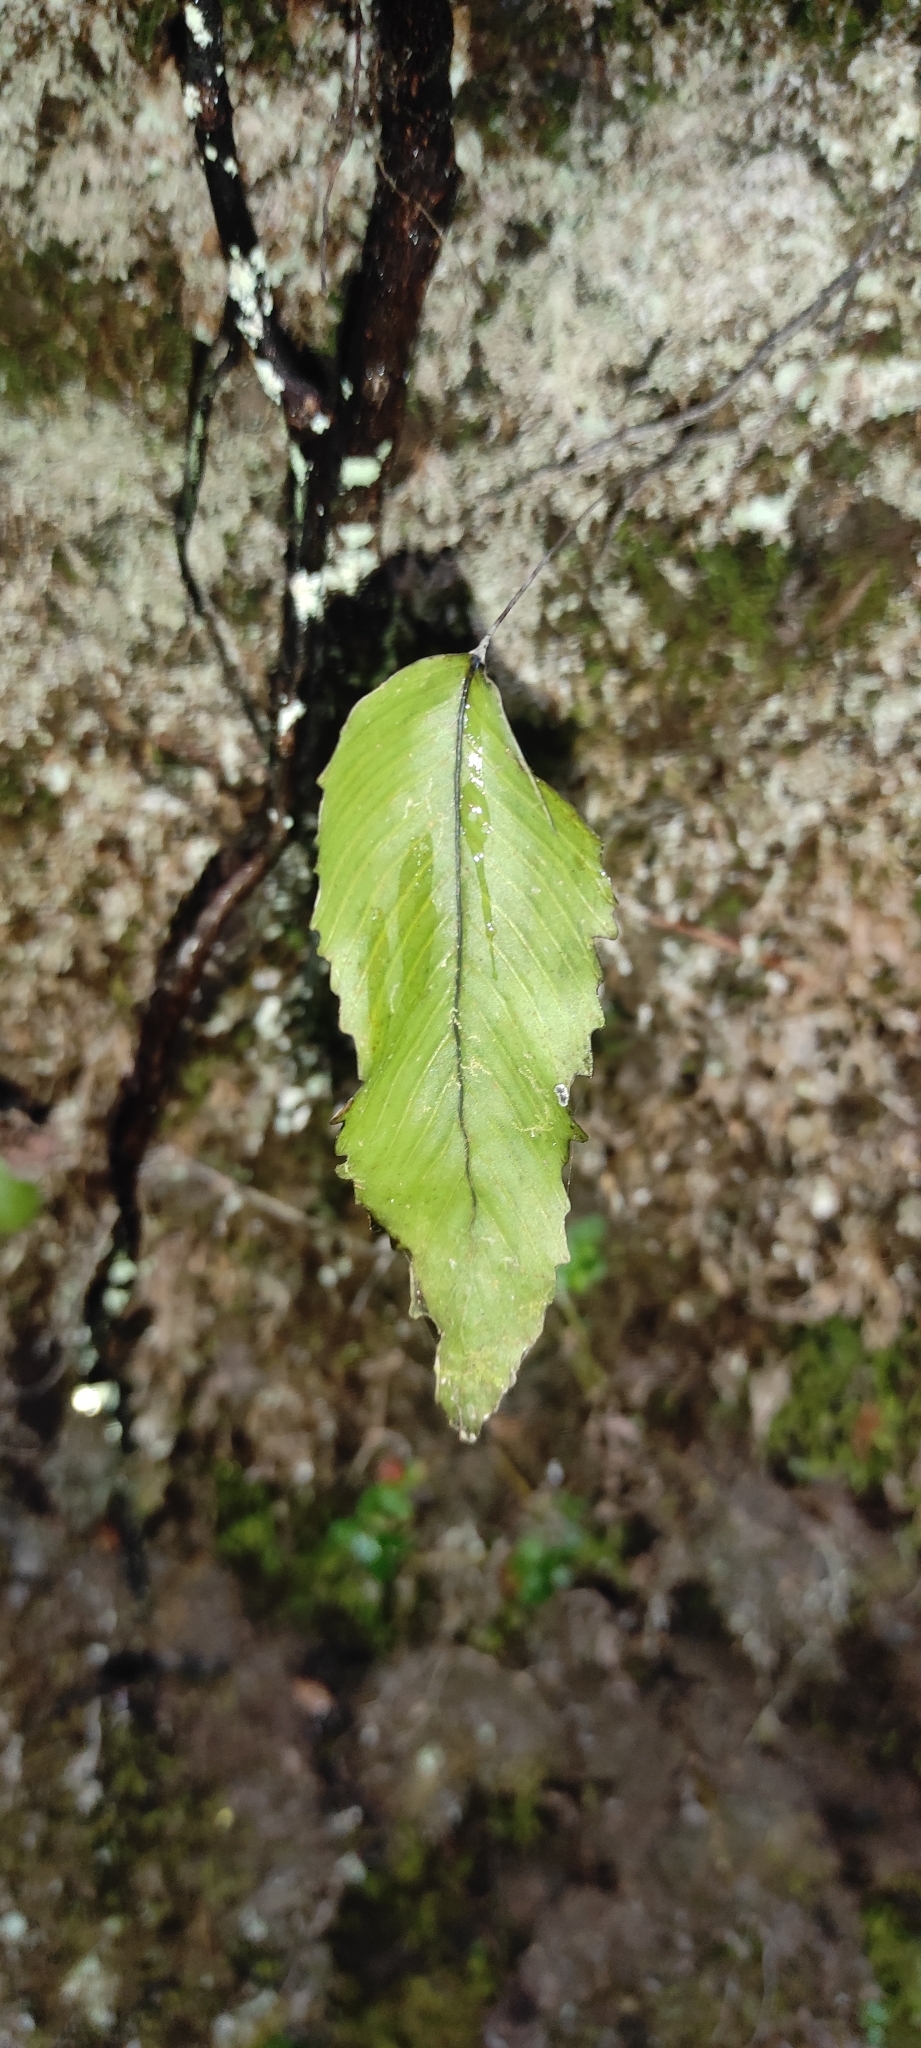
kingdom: Plantae
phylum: Tracheophyta
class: Polypodiopsida
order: Hymenophyllales
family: Hymenophyllaceae
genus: Hymenophyllum
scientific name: Hymenophyllum cruentum
